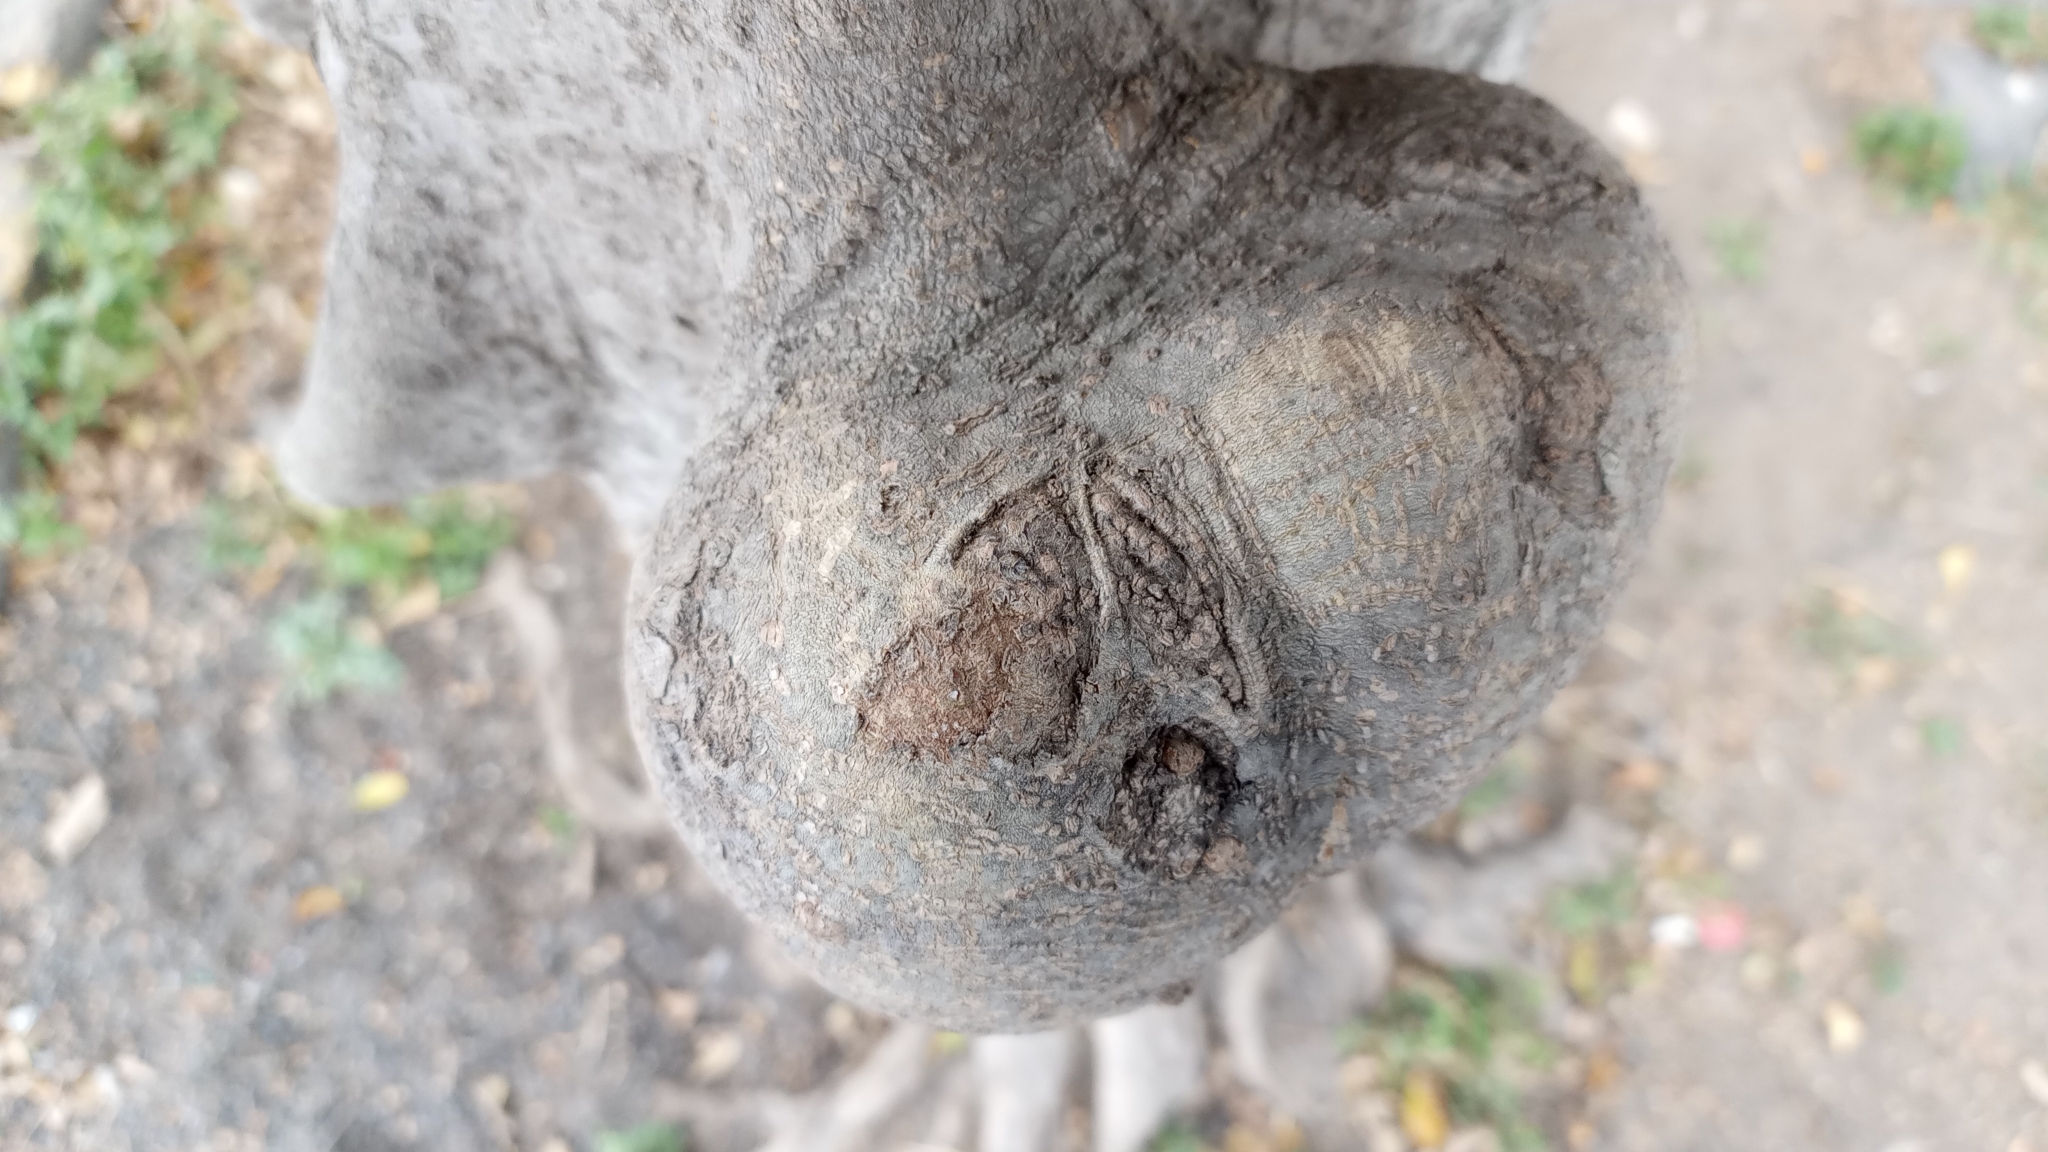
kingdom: Bacteria
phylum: Proteobacteria
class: Alphaproteobacteria
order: Rhizobiales
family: Rhizobiaceae
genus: Rhizobium
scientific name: Rhizobium Agrobacterium radiobacter
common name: Bacterial crown gall
